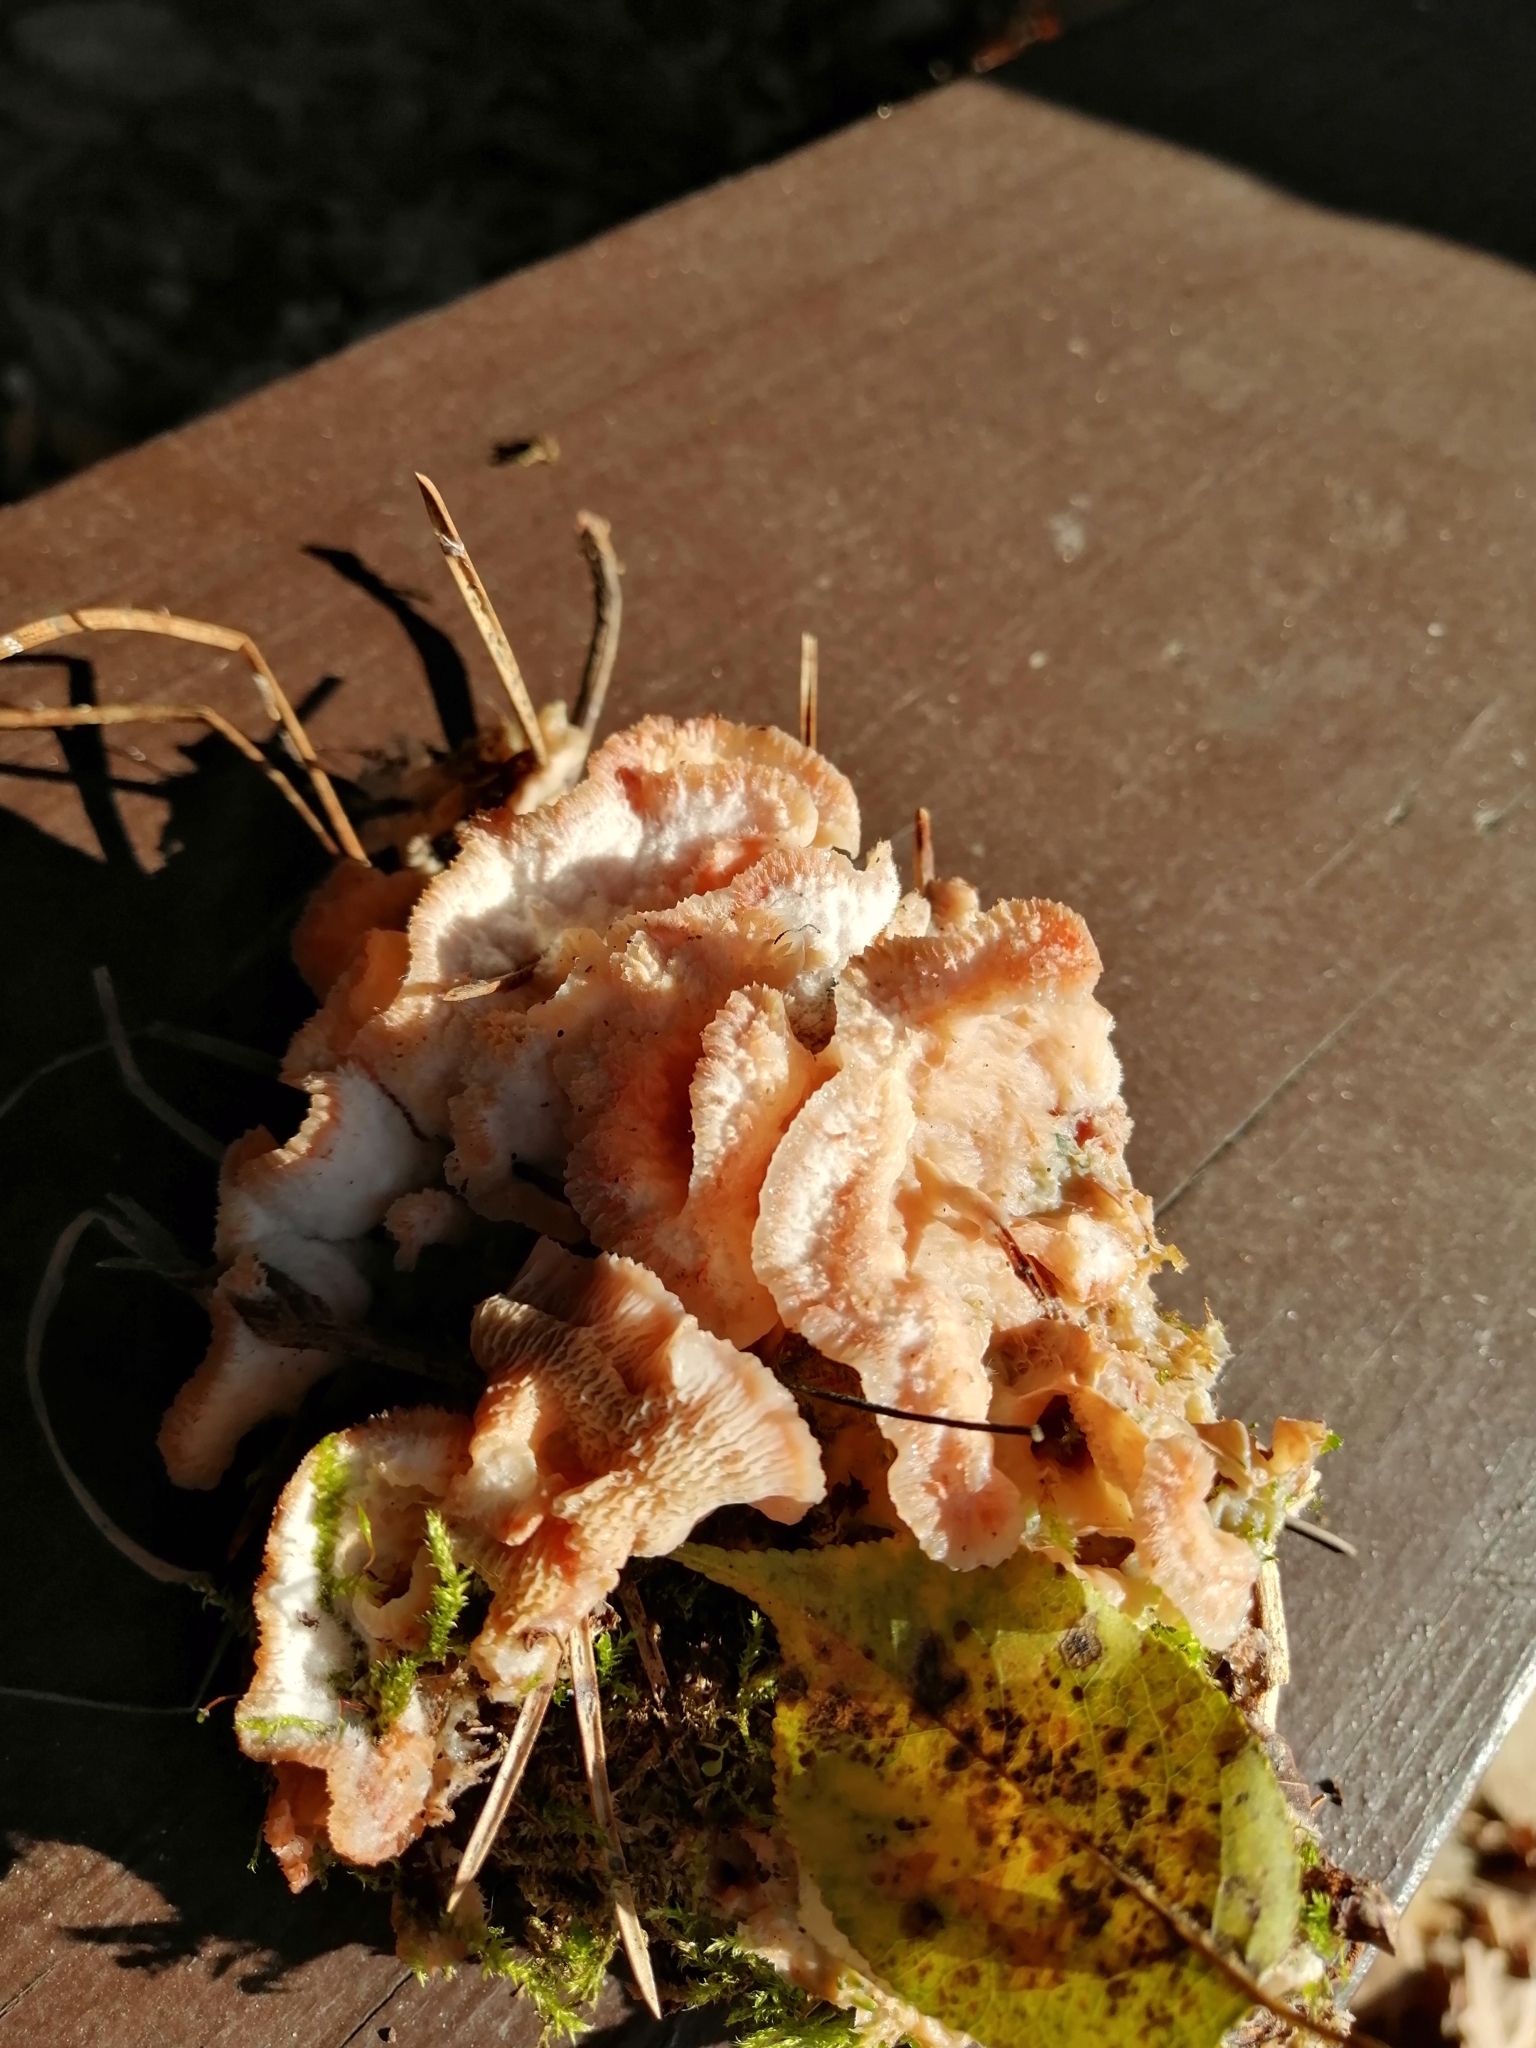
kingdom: Fungi
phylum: Basidiomycota
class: Agaricomycetes
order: Polyporales
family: Meruliaceae
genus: Phlebia
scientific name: Phlebia tremellosa
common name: Jelly rot
